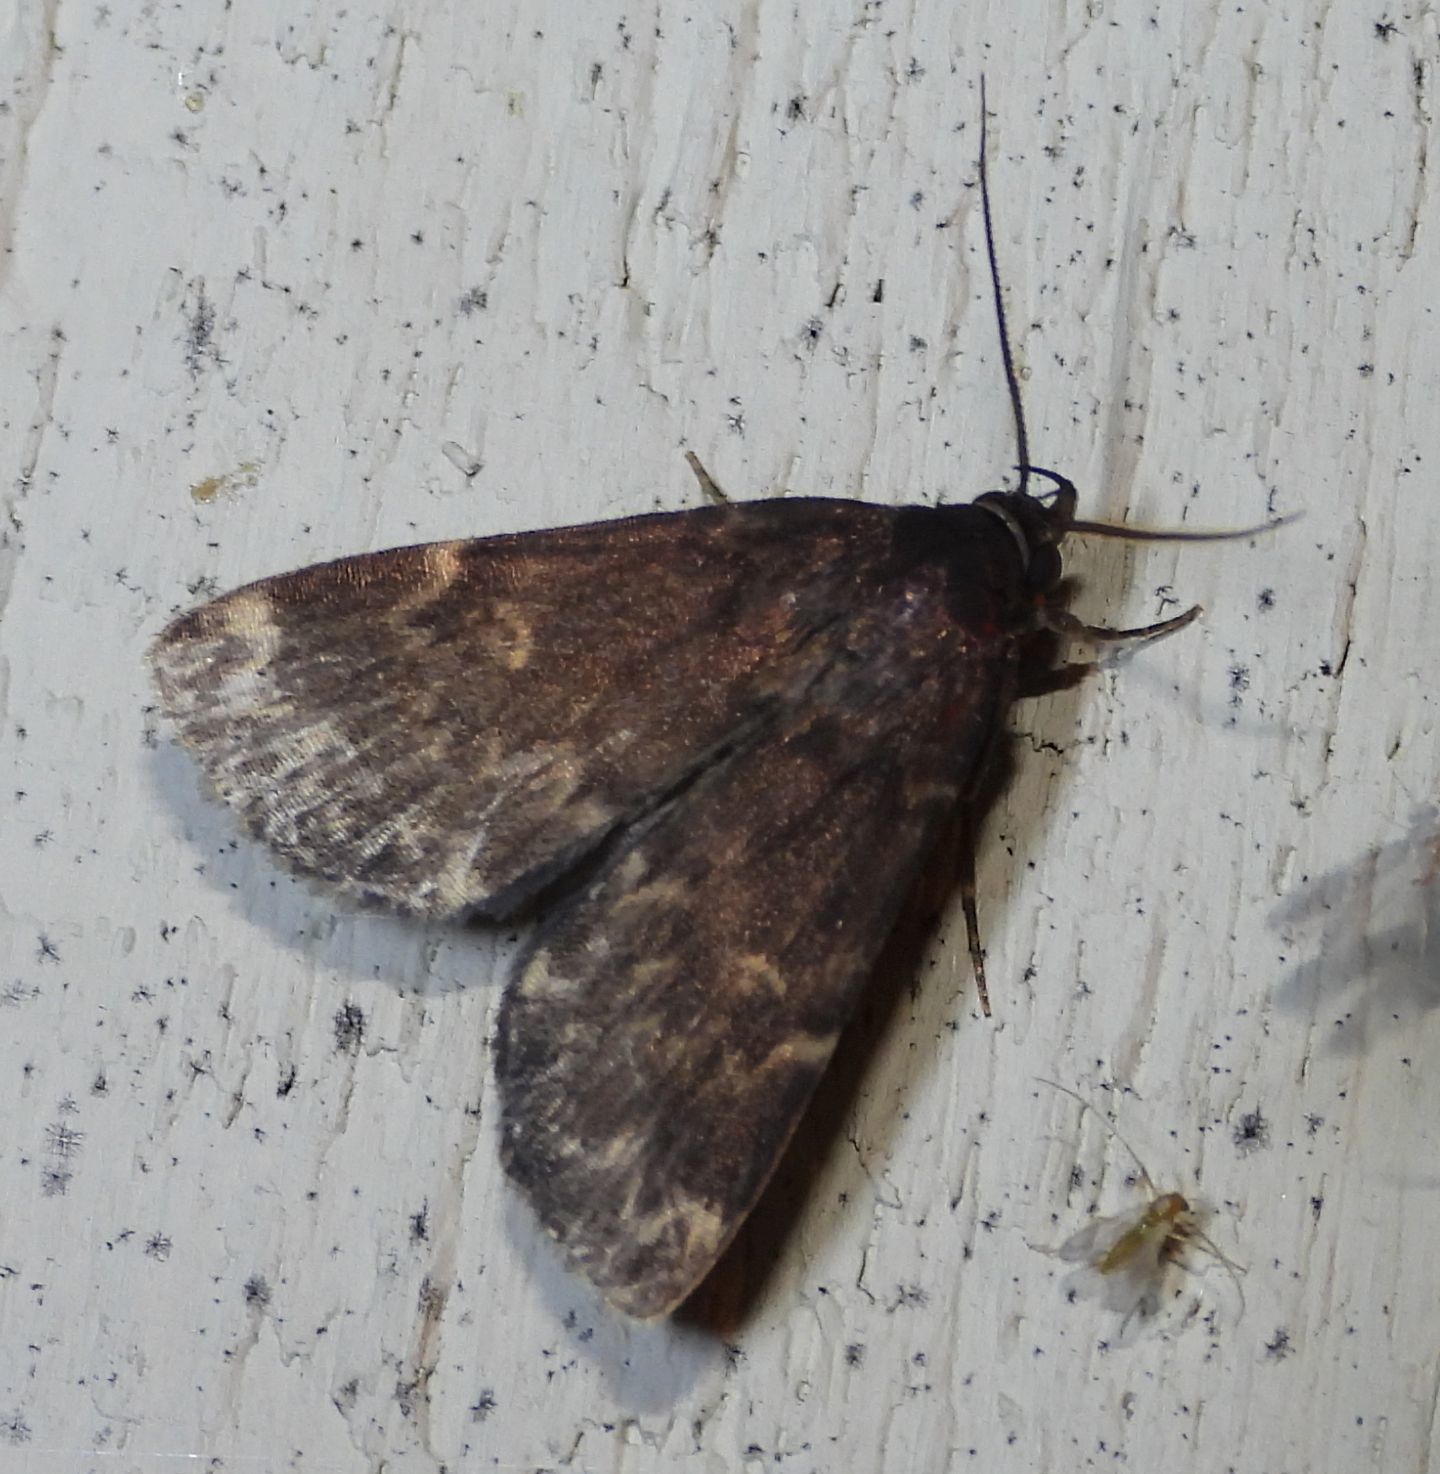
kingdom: Animalia
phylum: Arthropoda
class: Insecta
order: Lepidoptera
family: Erebidae
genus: Idia
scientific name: Idia lubricalis
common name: Twin-striped tabby
